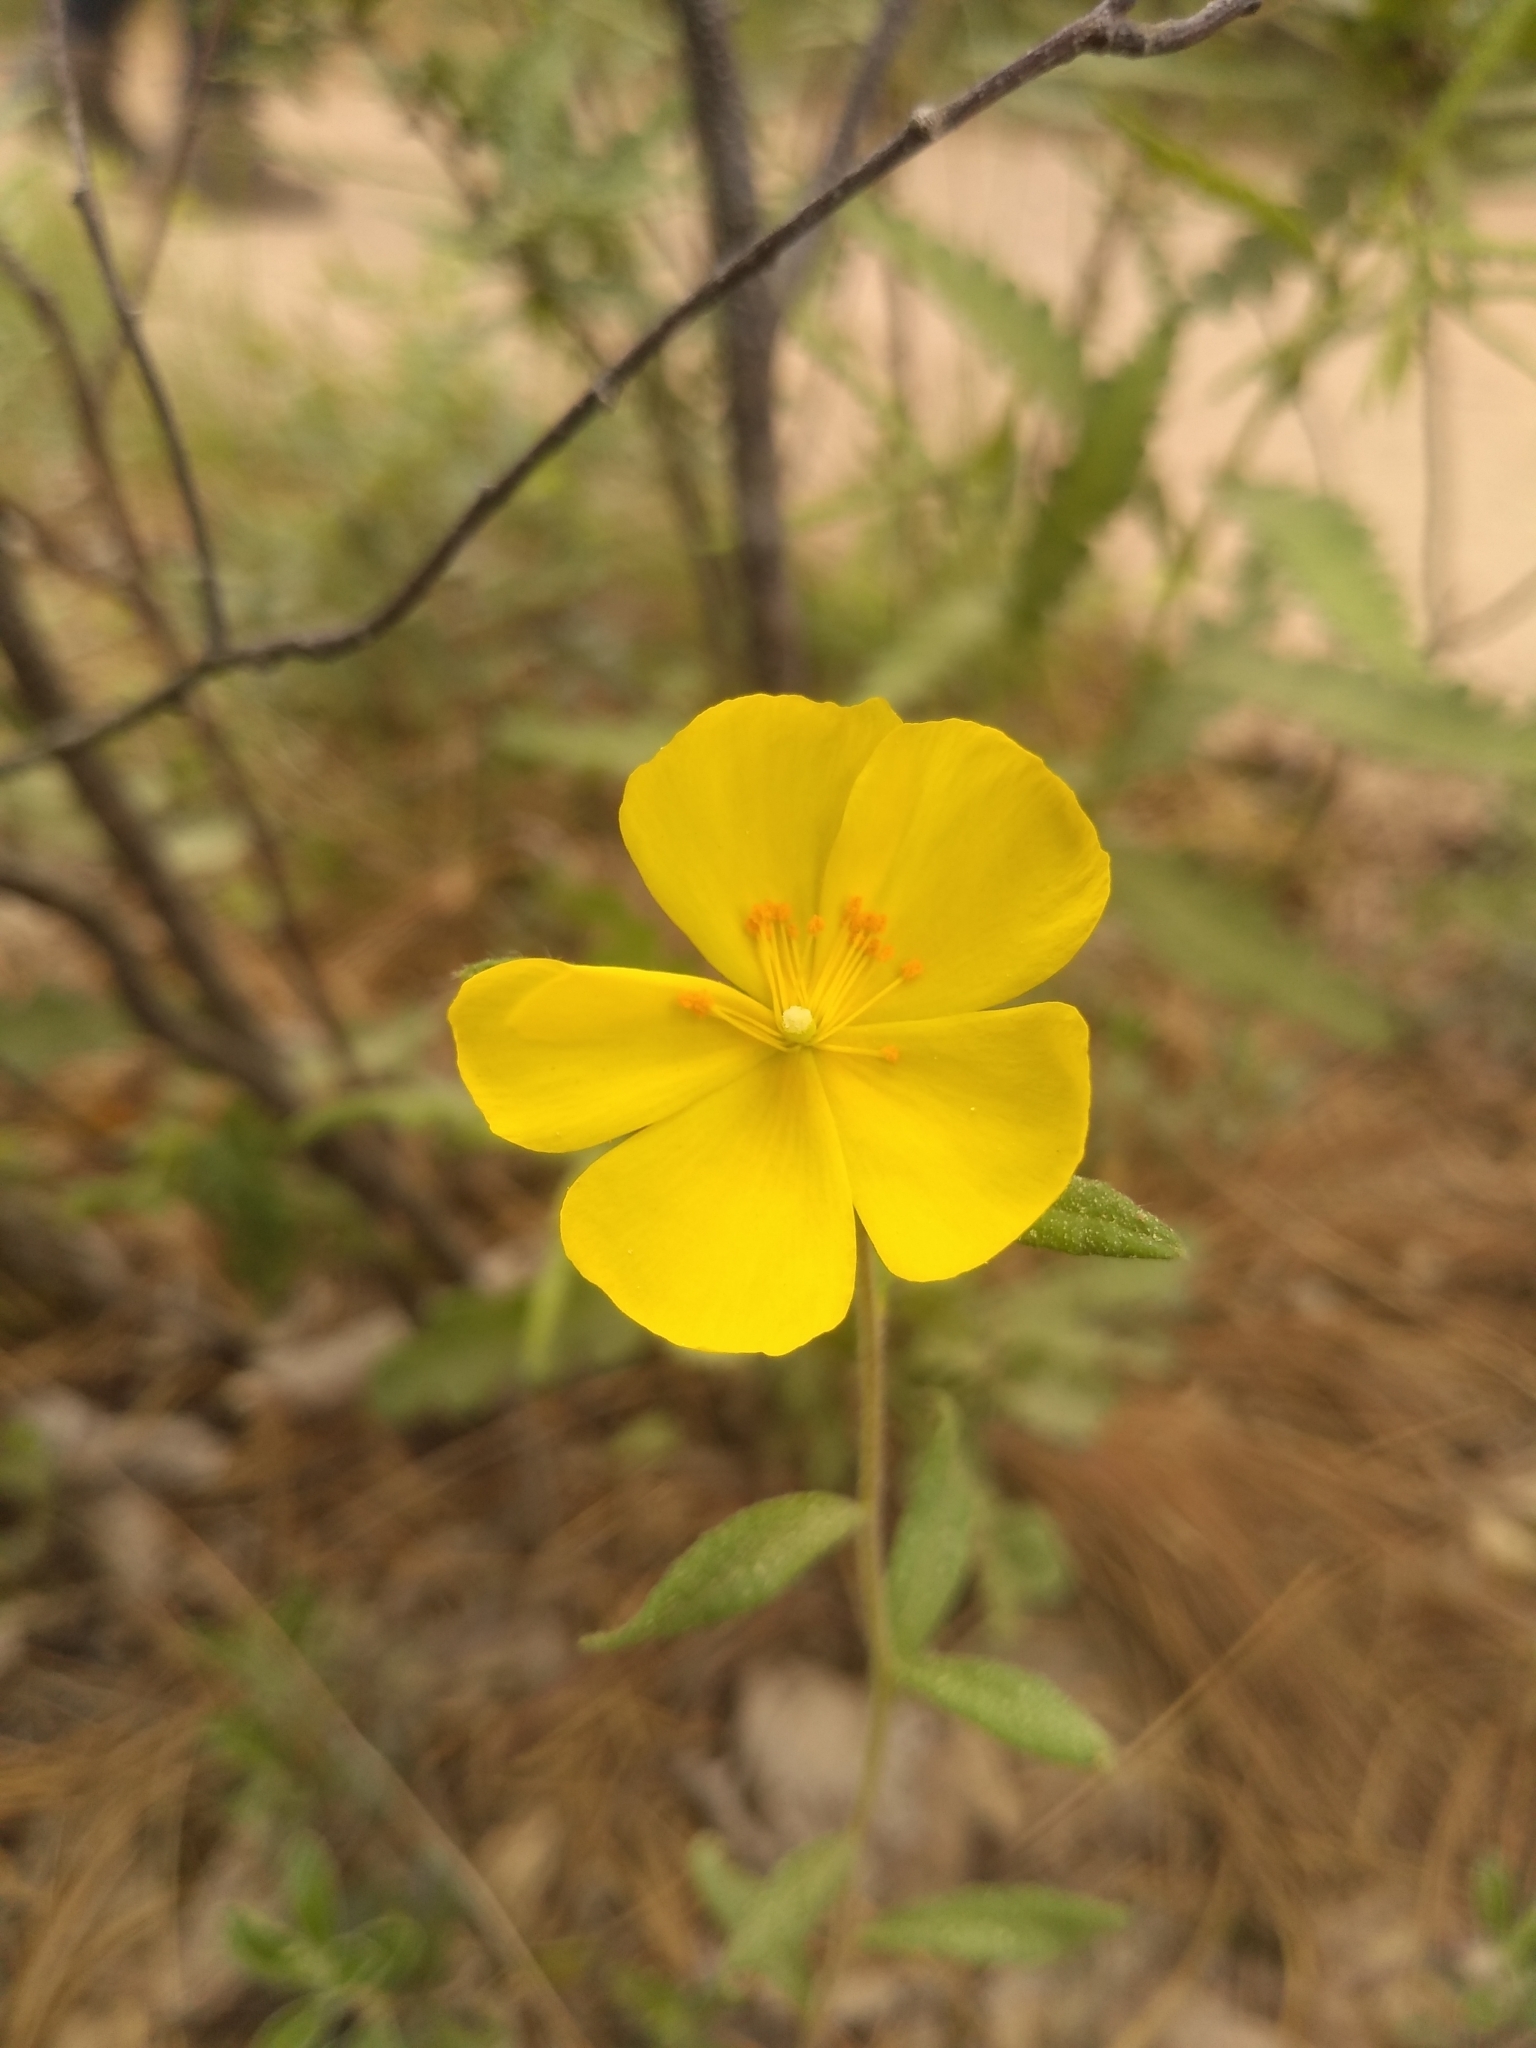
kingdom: Plantae
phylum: Tracheophyta
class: Magnoliopsida
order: Malvales
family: Cistaceae
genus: Crocanthemum
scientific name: Crocanthemum canadense
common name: Canada frostweed
